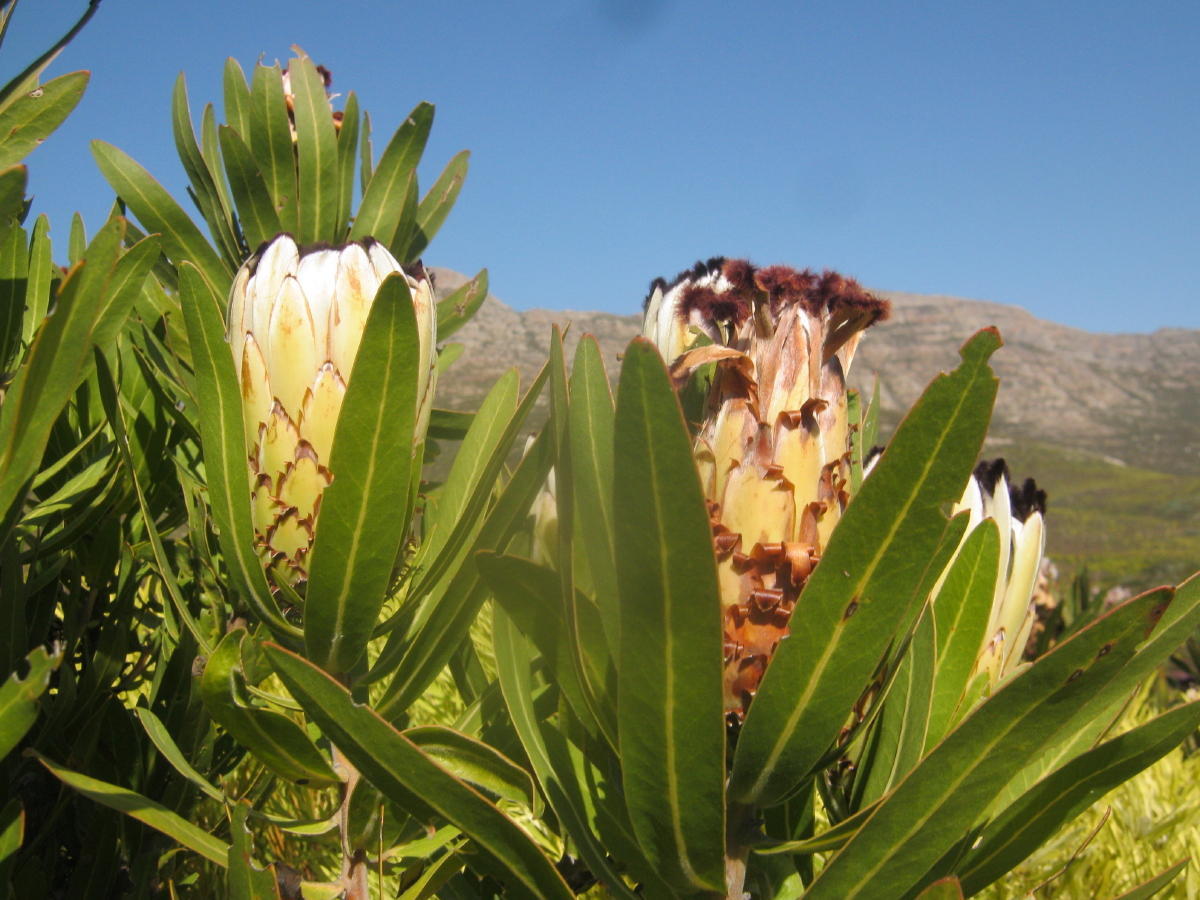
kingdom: Plantae
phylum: Tracheophyta
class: Magnoliopsida
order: Proteales
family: Proteaceae
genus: Protea
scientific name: Protea neriifolia
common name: Blue sugarbush
